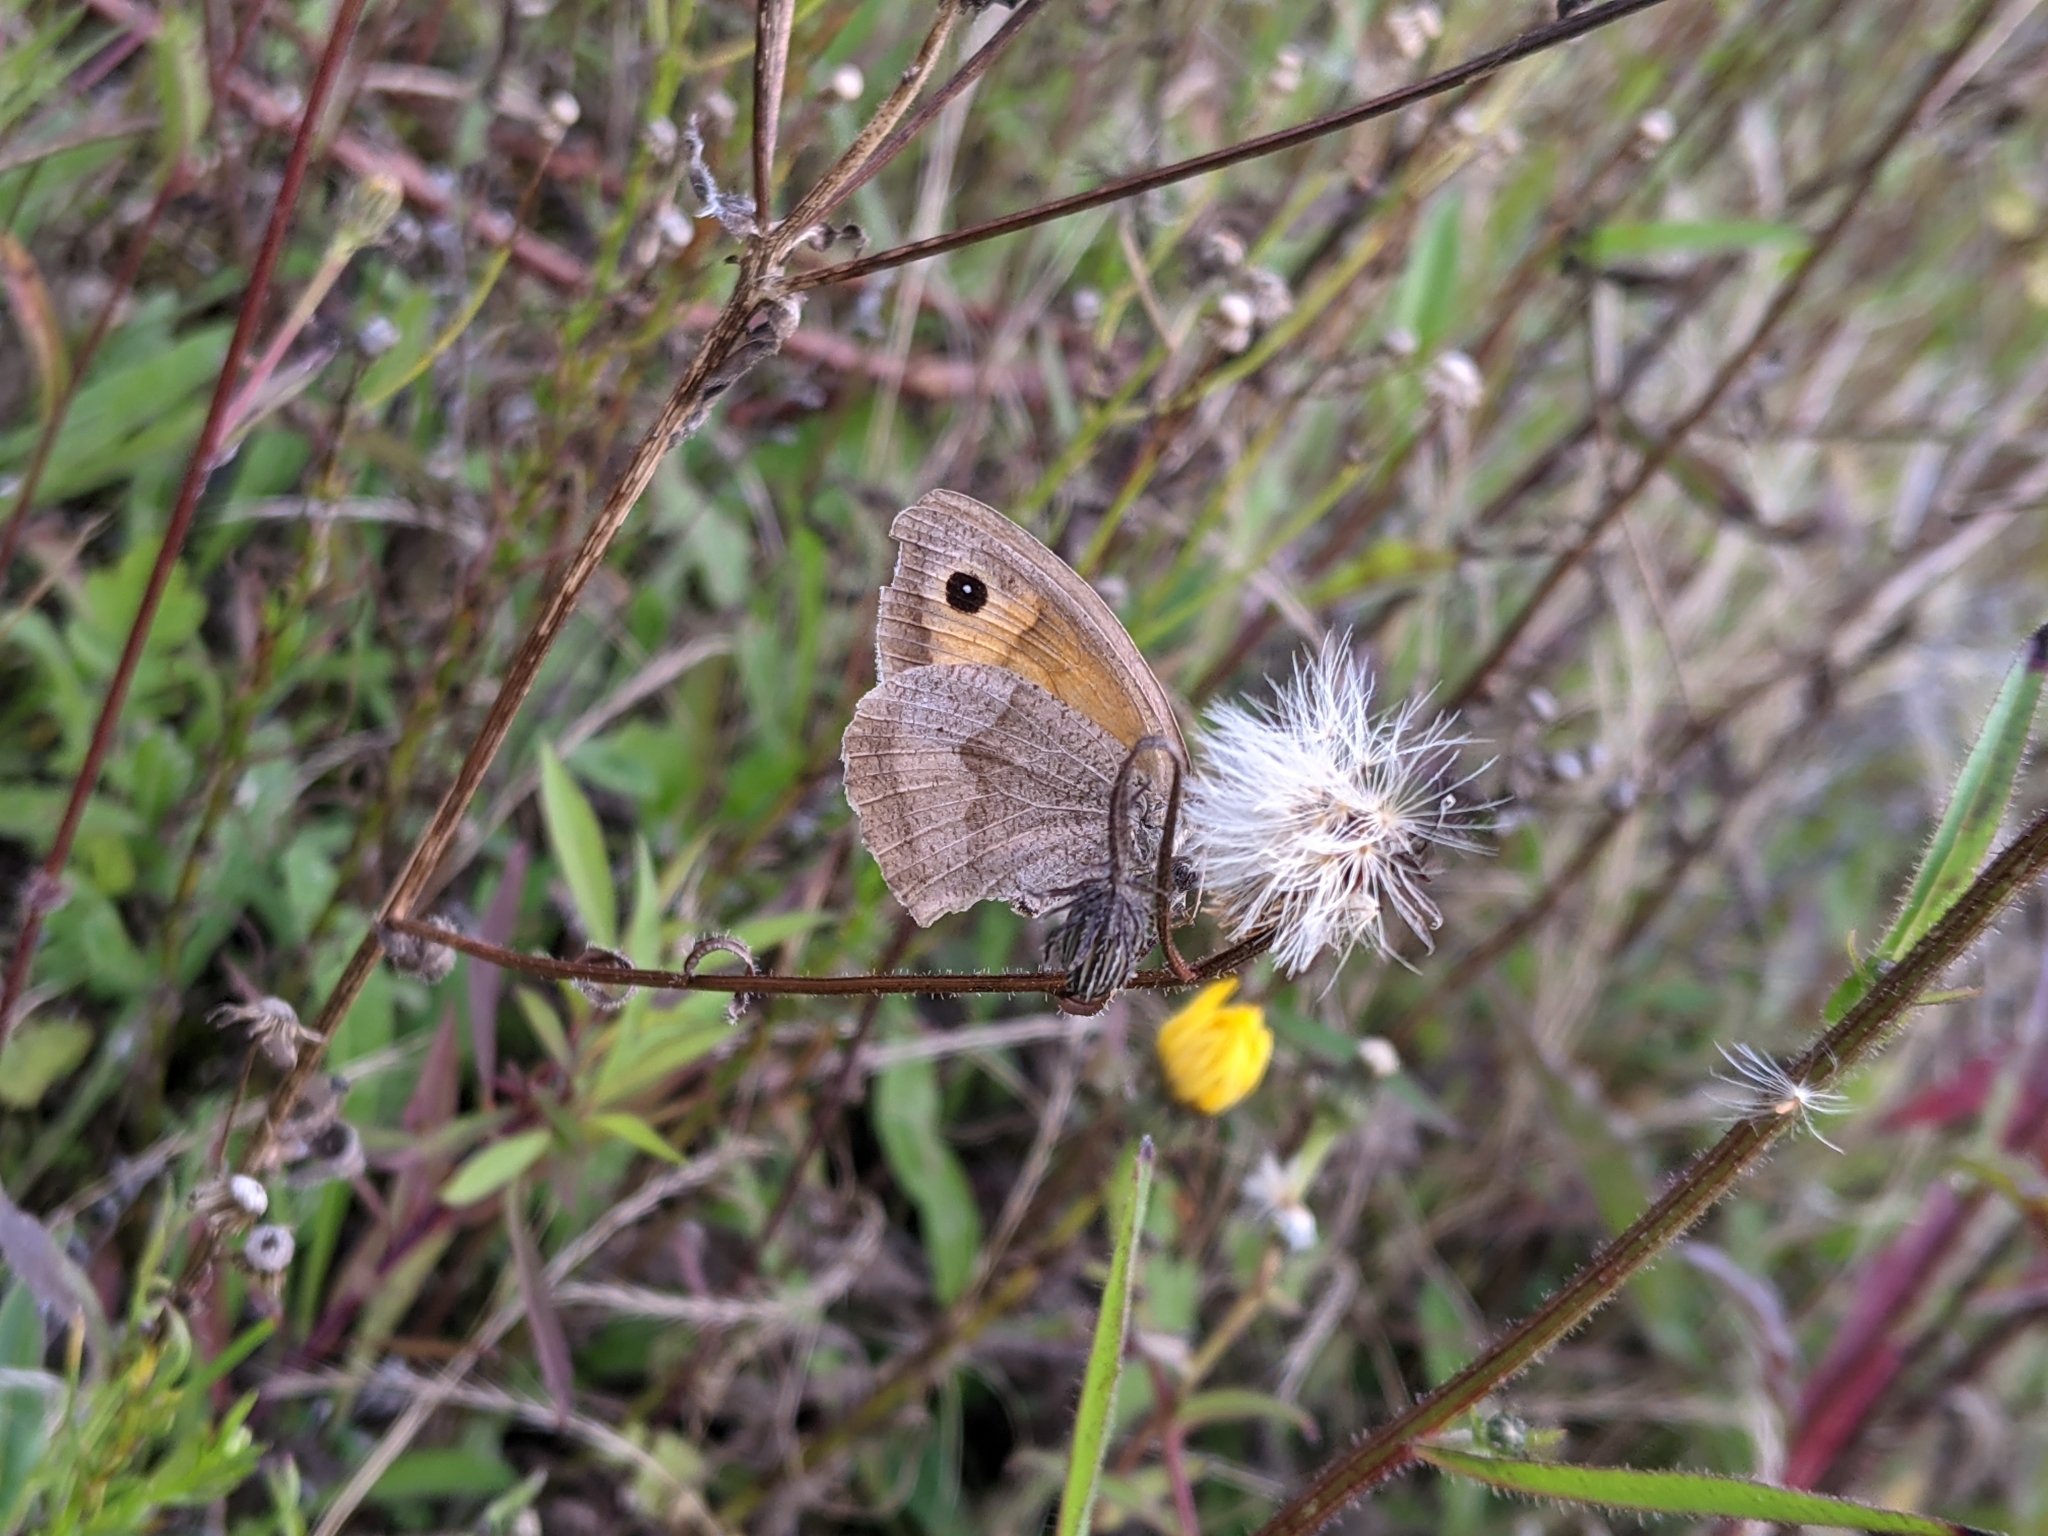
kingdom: Animalia
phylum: Arthropoda
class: Insecta
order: Lepidoptera
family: Nymphalidae
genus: Maniola
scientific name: Maniola jurtina
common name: Meadow brown
